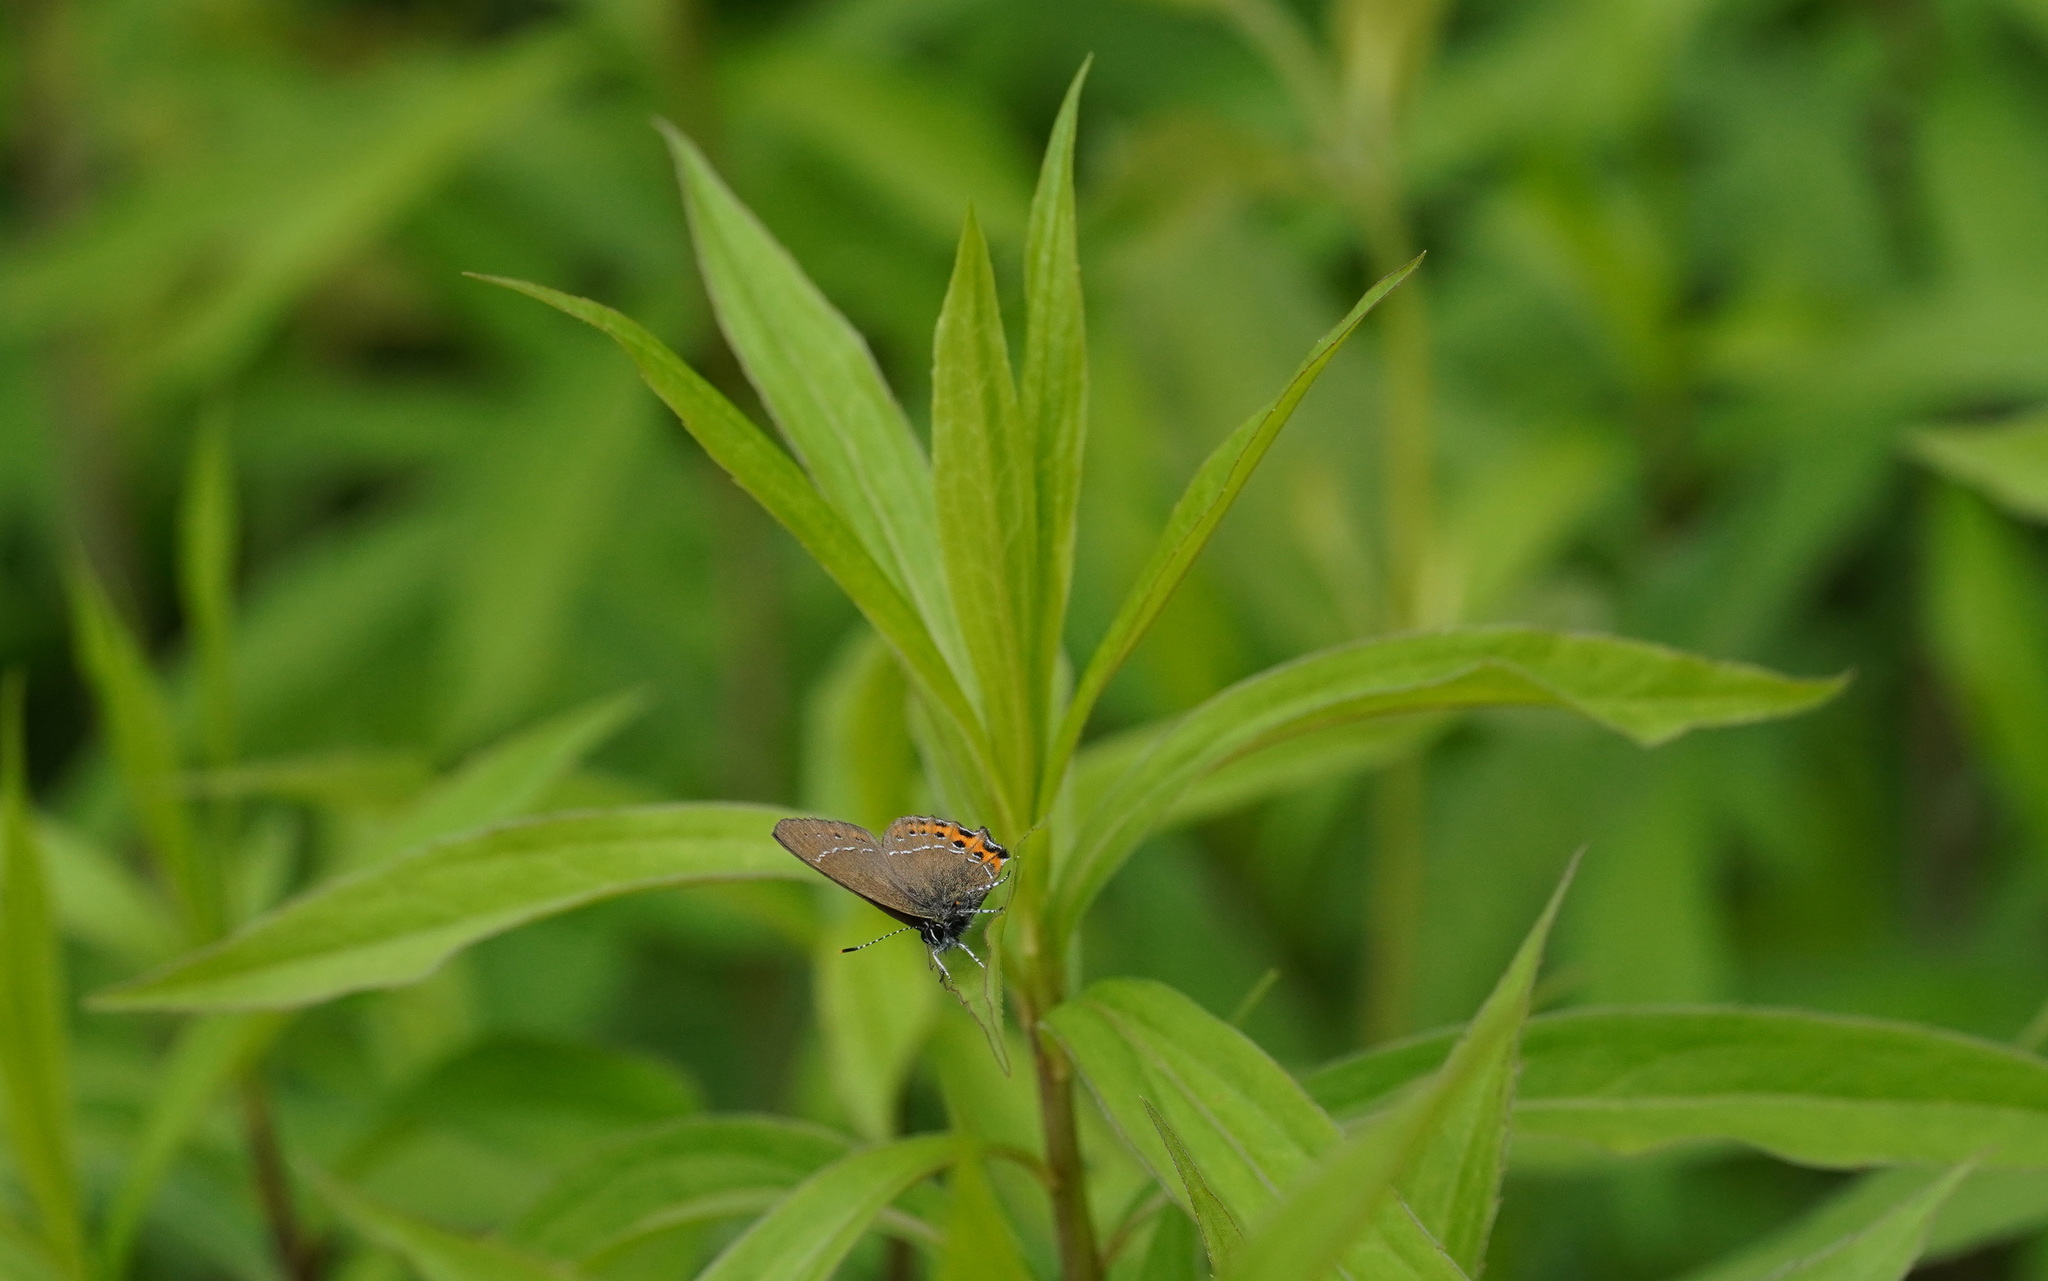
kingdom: Animalia
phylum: Arthropoda
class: Insecta
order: Lepidoptera
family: Lycaenidae
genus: Fixsenia
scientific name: Fixsenia pruni
